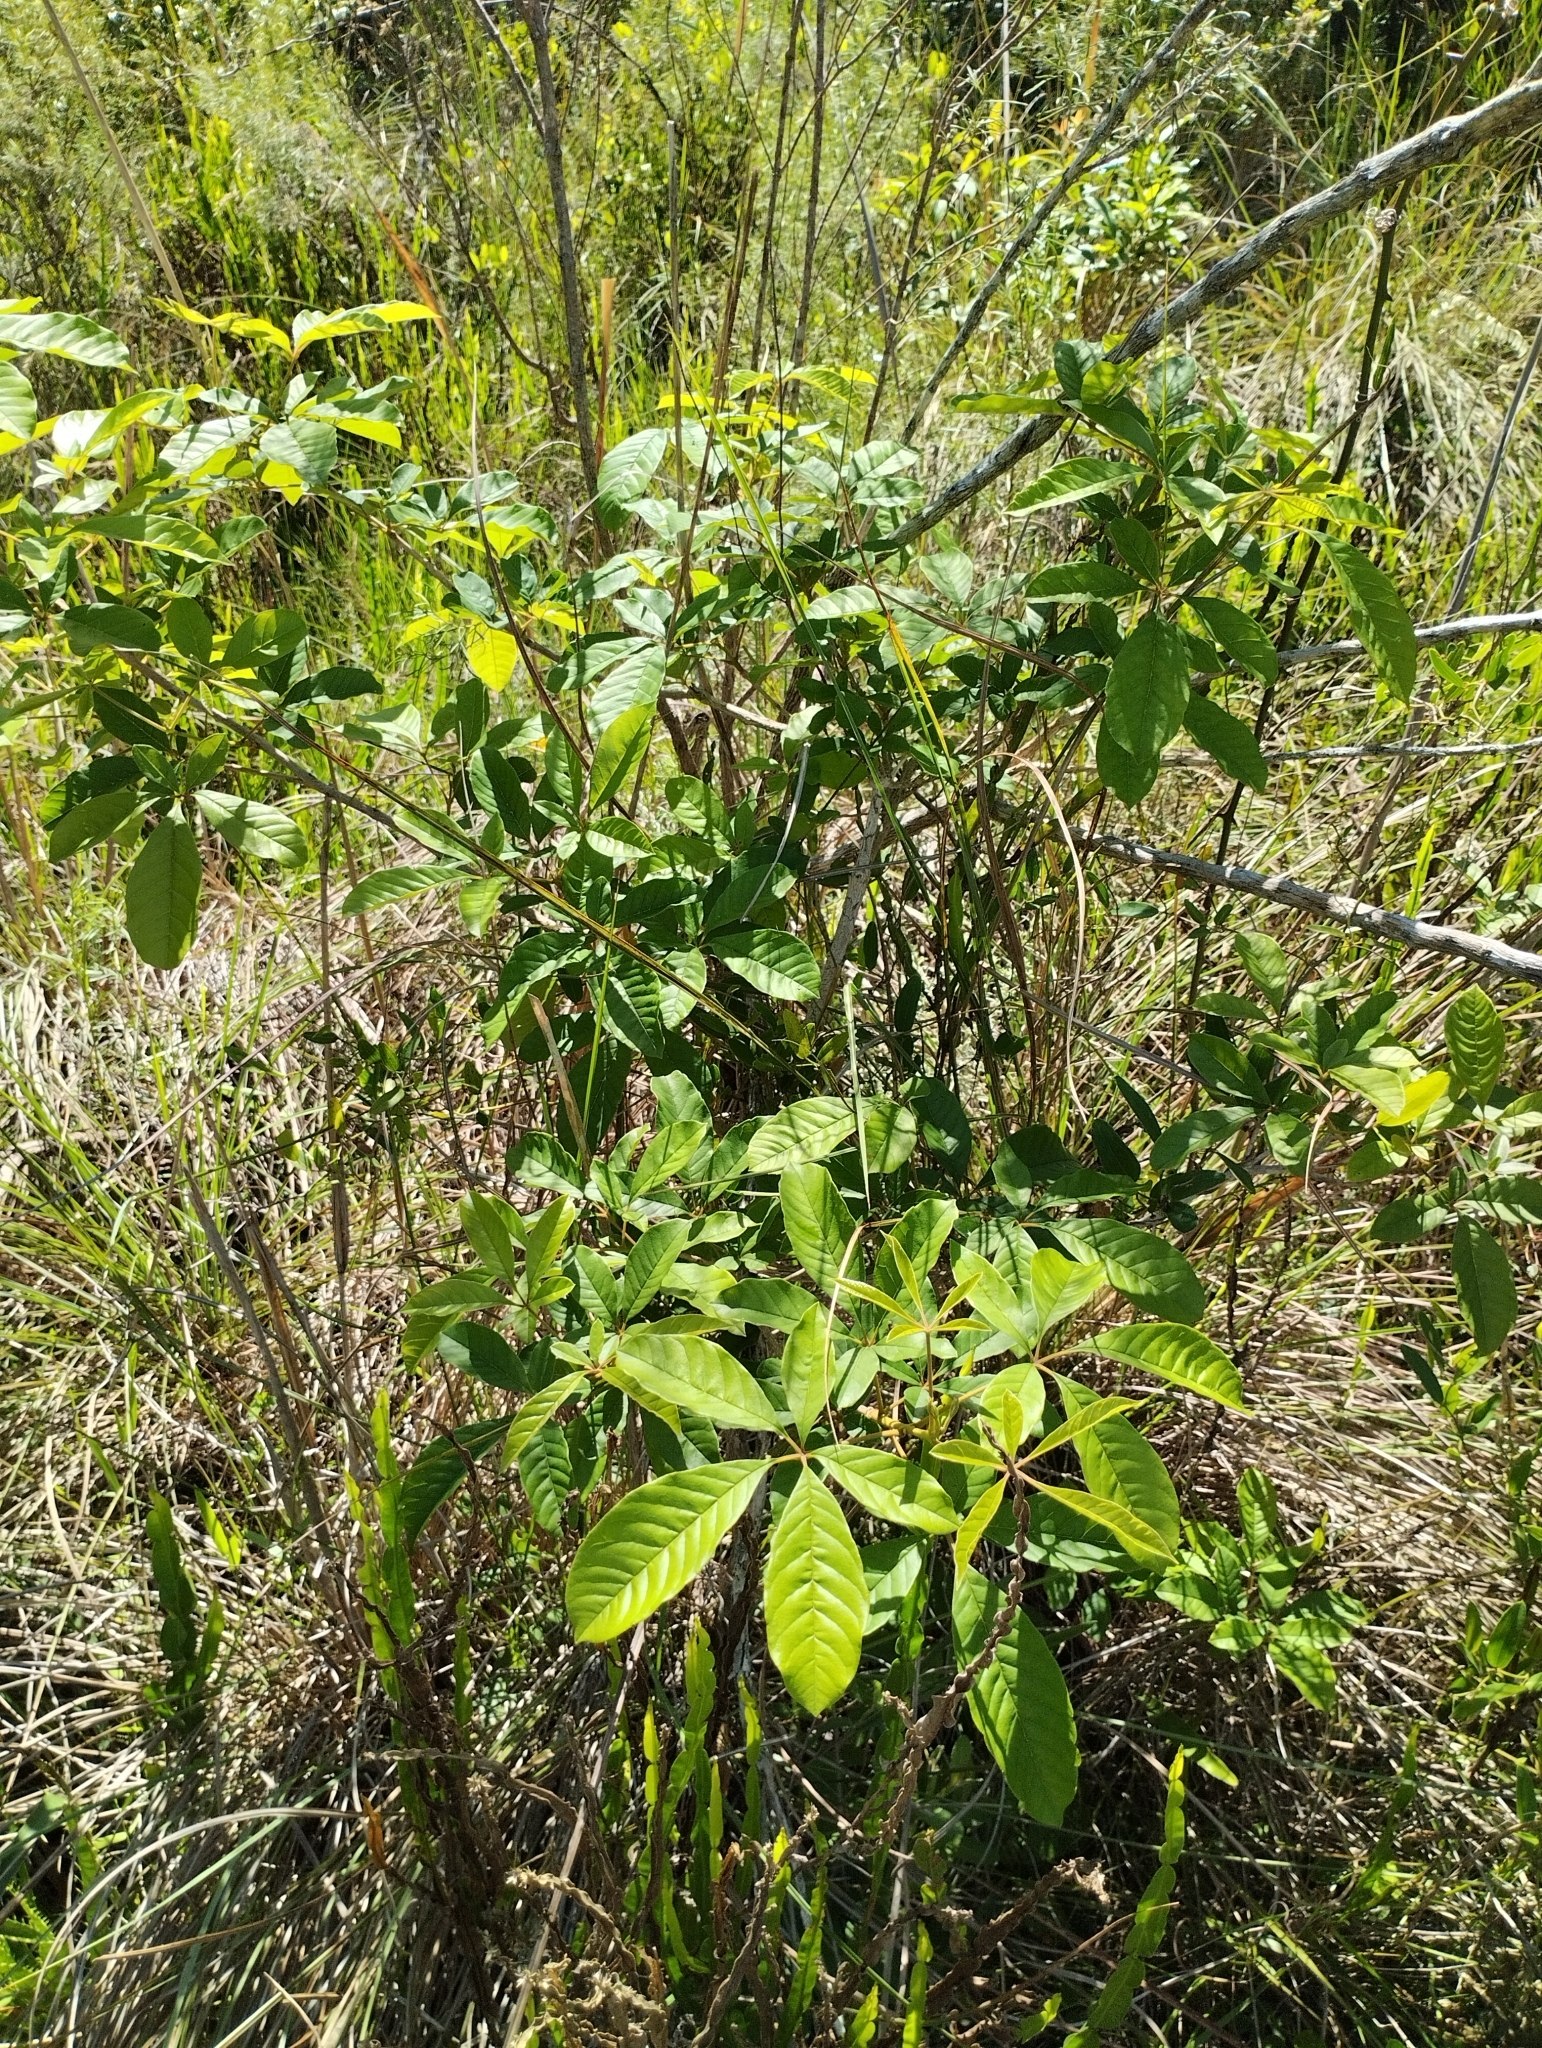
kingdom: Plantae
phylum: Tracheophyta
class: Magnoliopsida
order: Lamiales
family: Lamiaceae
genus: Vitex
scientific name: Vitex megapotamica
